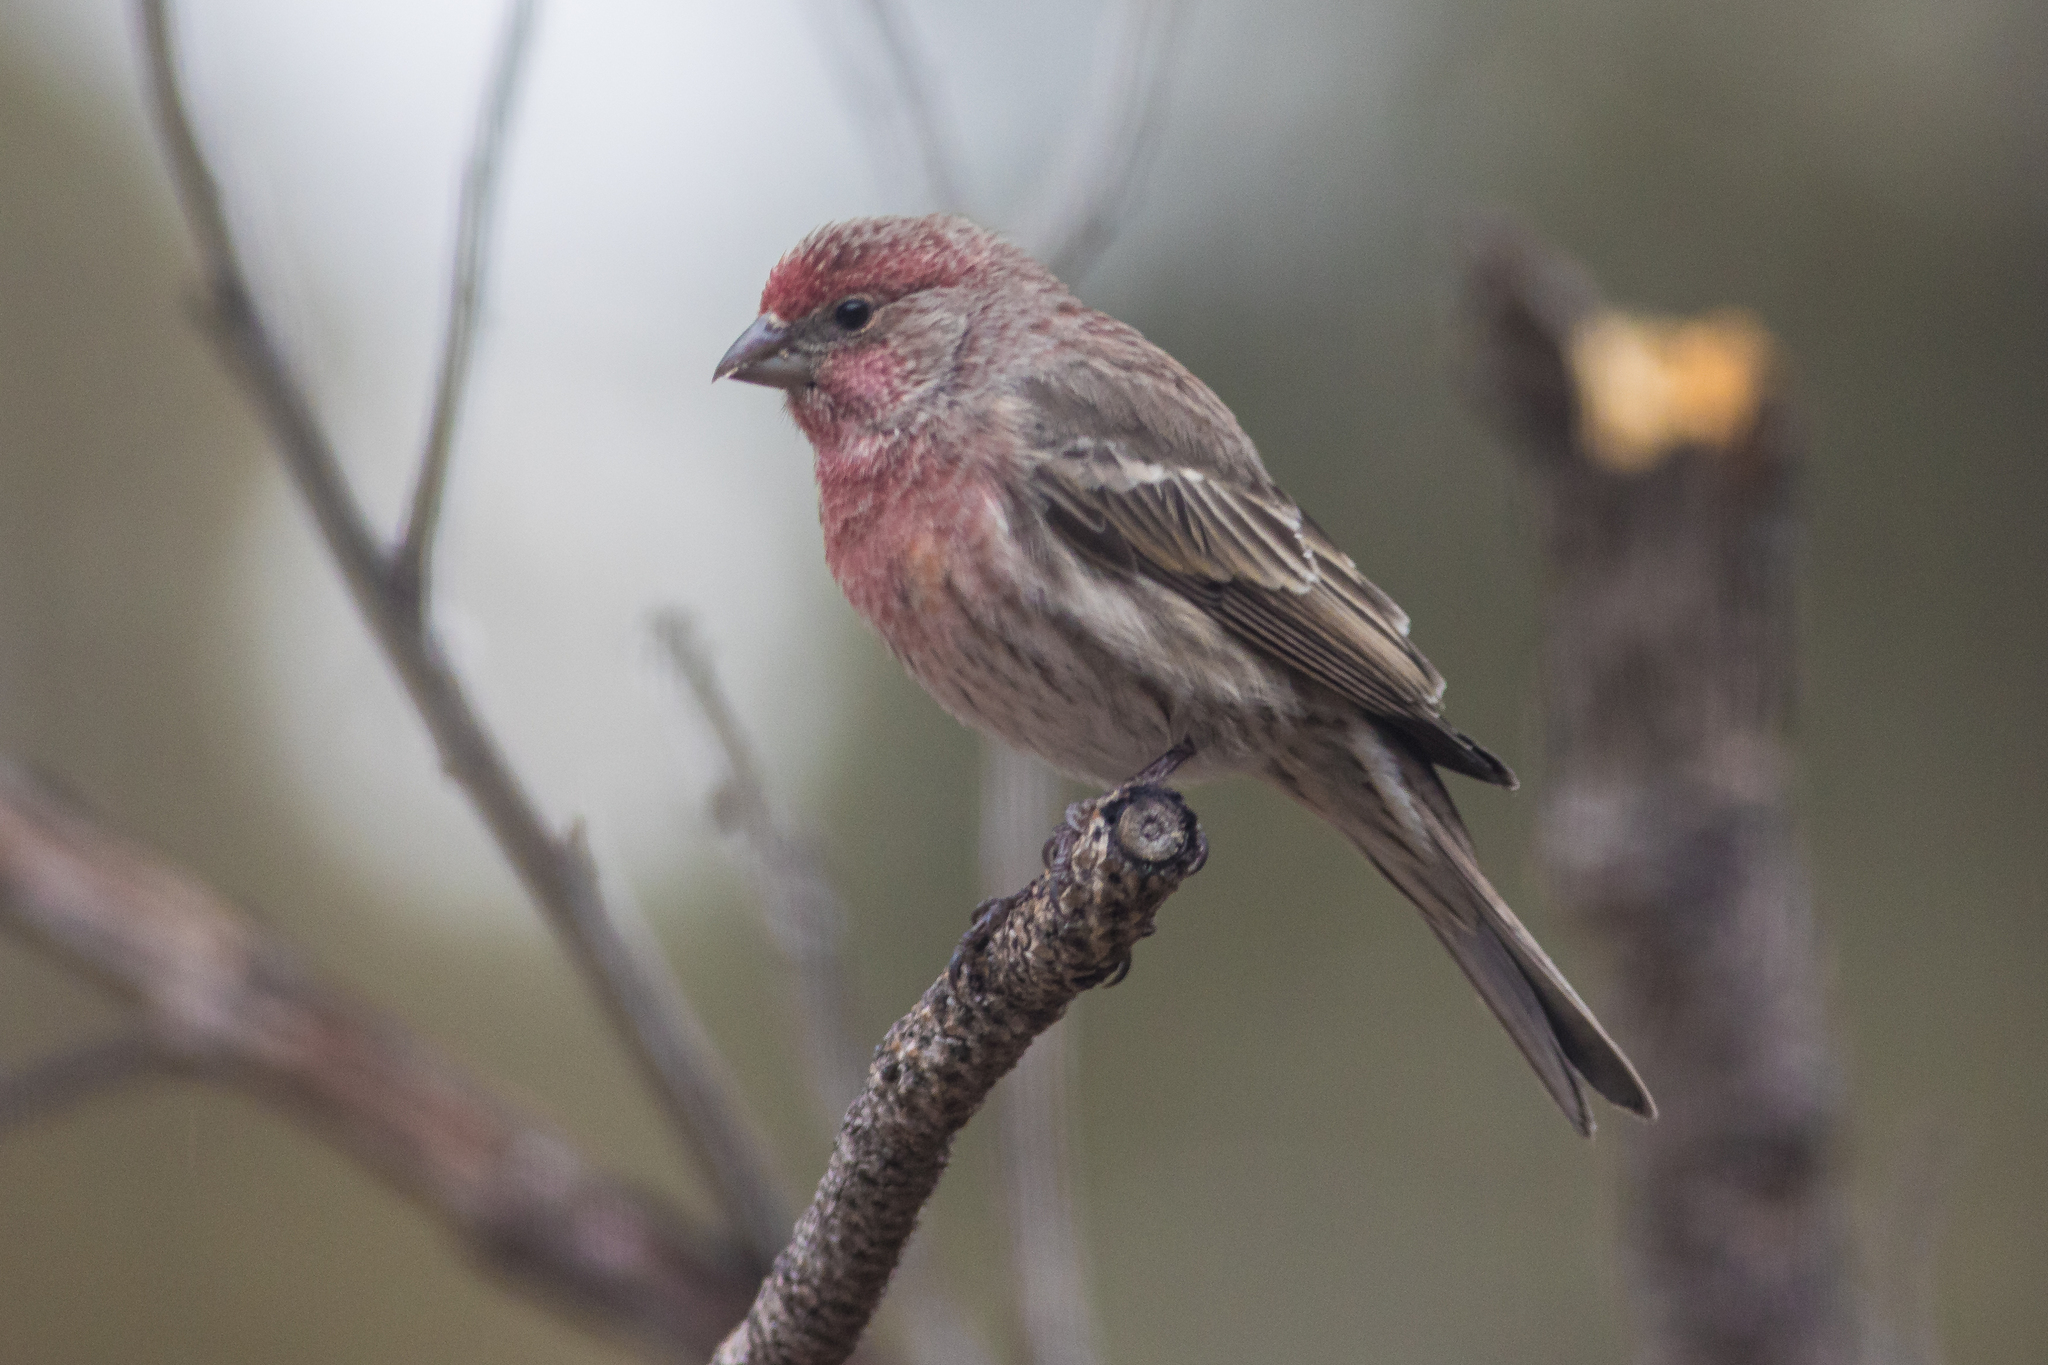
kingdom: Animalia
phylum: Chordata
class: Aves
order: Passeriformes
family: Fringillidae
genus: Haemorhous
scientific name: Haemorhous mexicanus
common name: House finch
